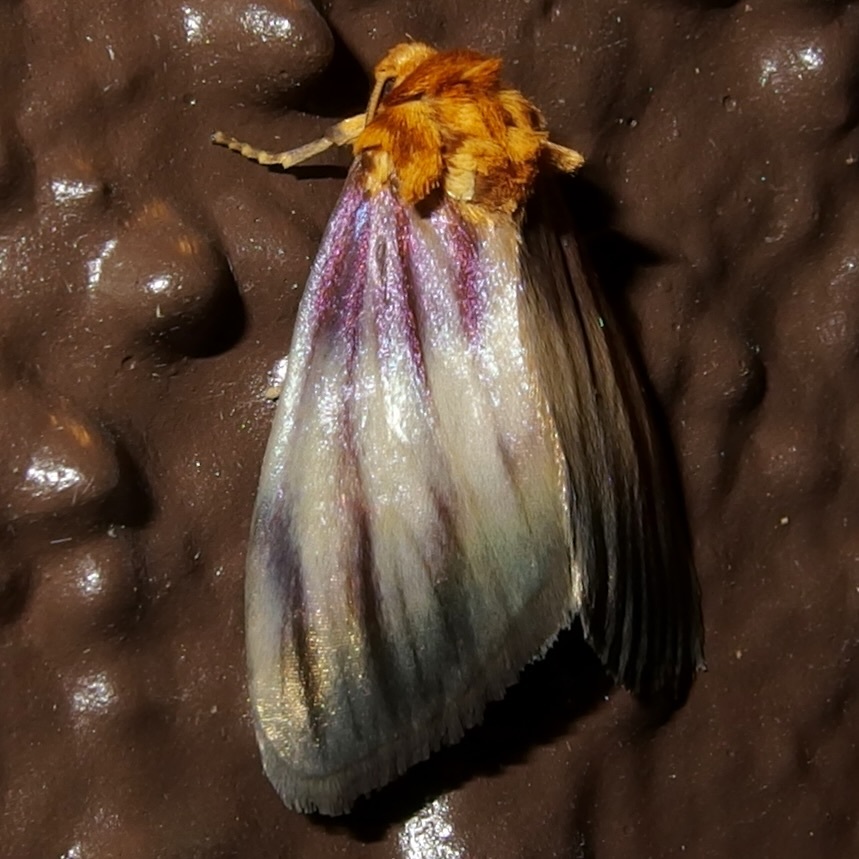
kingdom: Animalia
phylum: Arthropoda
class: Insecta
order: Lepidoptera
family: Noctuidae
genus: Antaplaga
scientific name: Antaplaga plesioglauca
